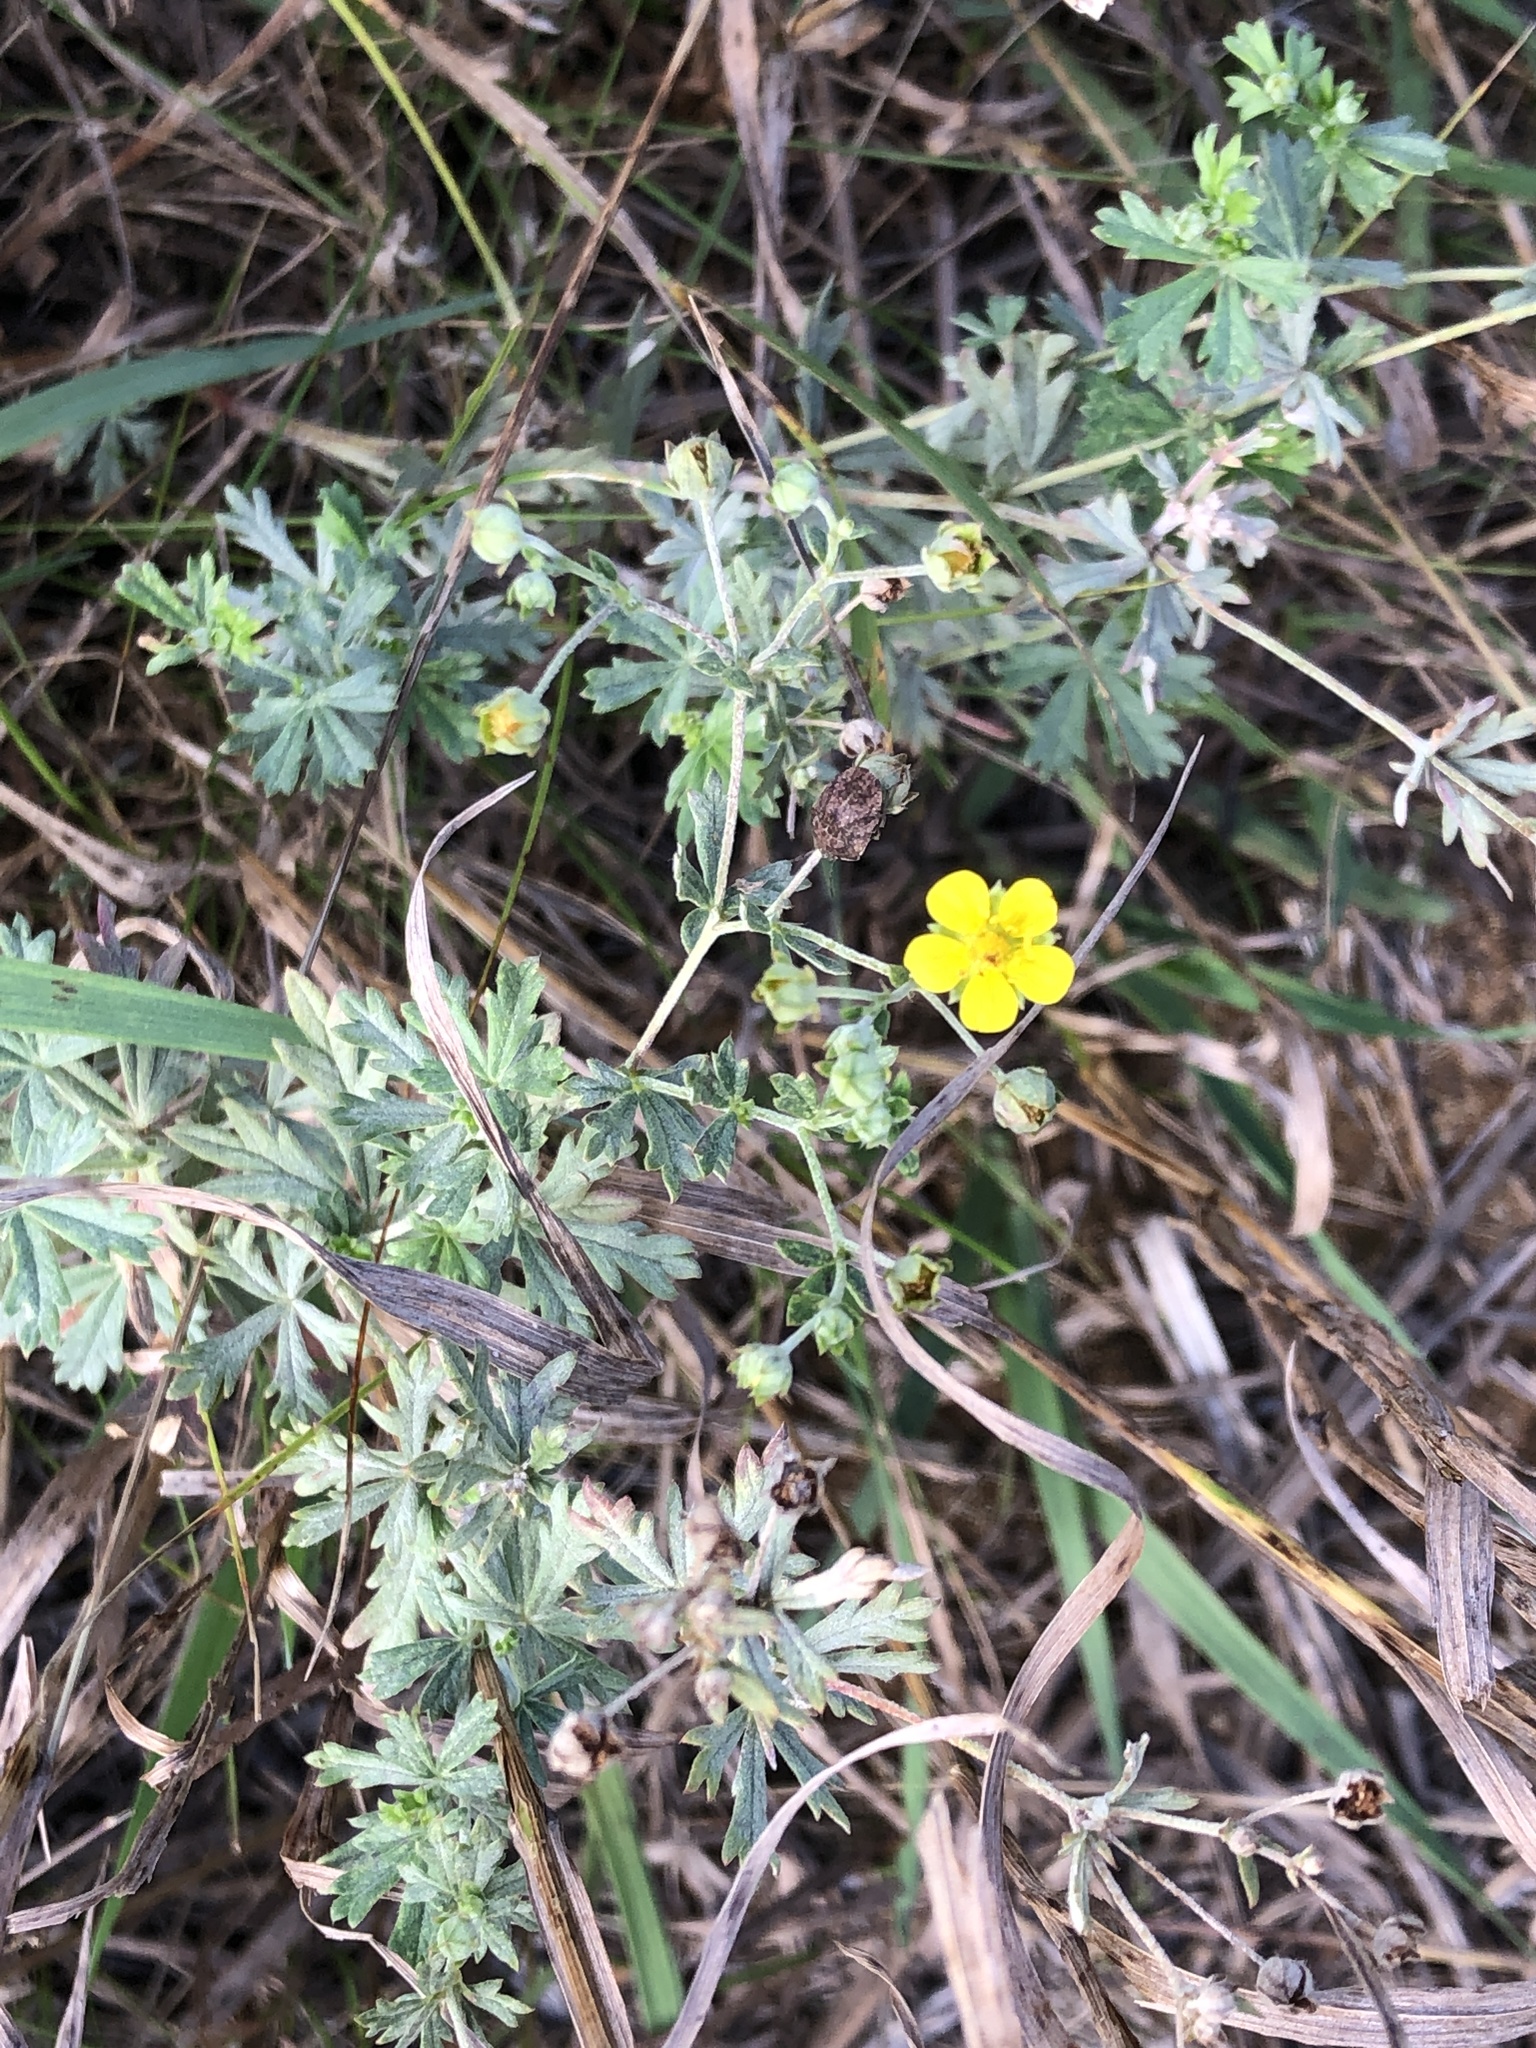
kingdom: Plantae
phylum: Tracheophyta
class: Magnoliopsida
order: Rosales
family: Rosaceae
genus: Potentilla
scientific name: Potentilla argentea
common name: Hoary cinquefoil
